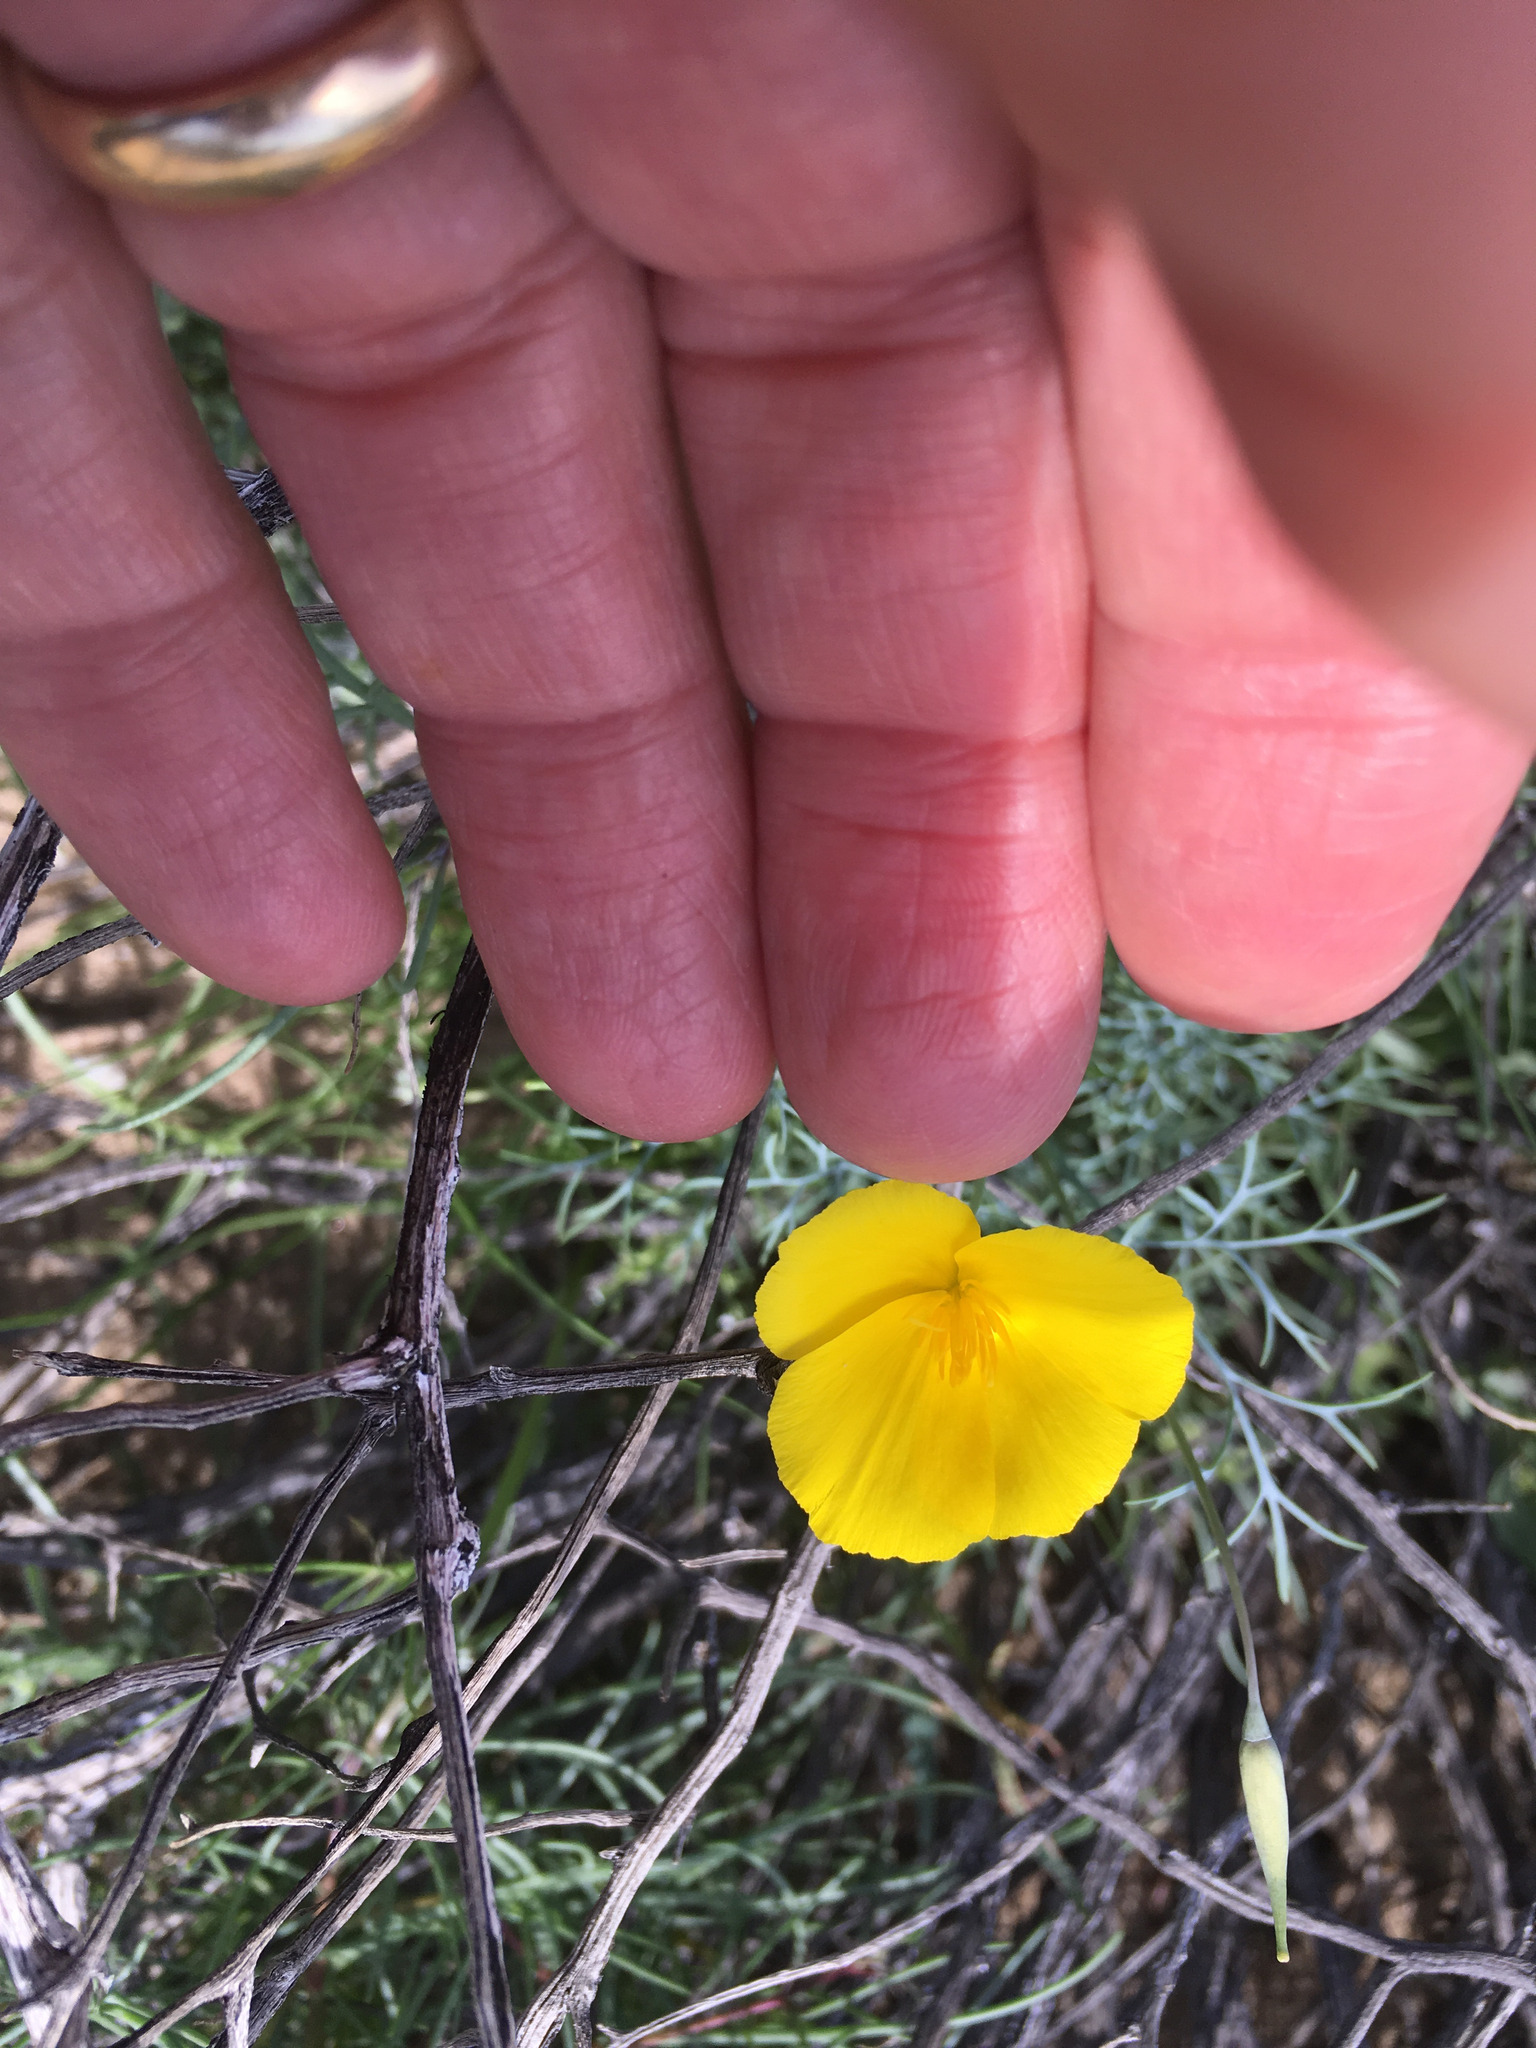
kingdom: Plantae
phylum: Tracheophyta
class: Magnoliopsida
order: Ranunculales
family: Papaveraceae
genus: Eschscholzia
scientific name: Eschscholzia parishii
